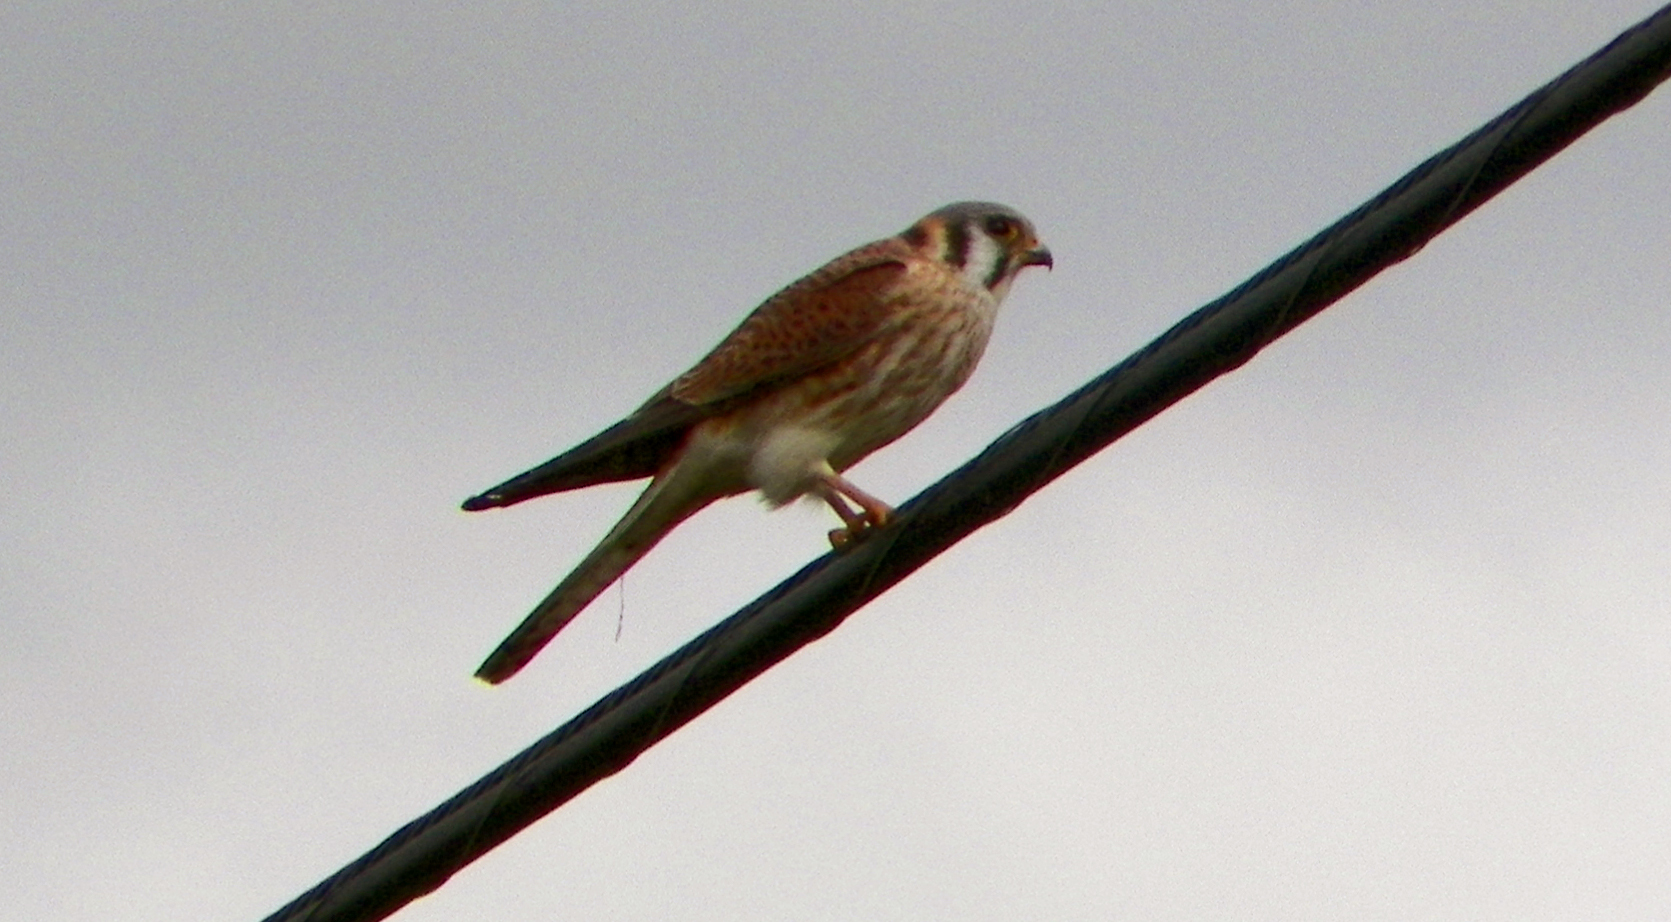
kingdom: Animalia
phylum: Chordata
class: Aves
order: Falconiformes
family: Falconidae
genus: Falco
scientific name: Falco sparverius
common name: American kestrel
